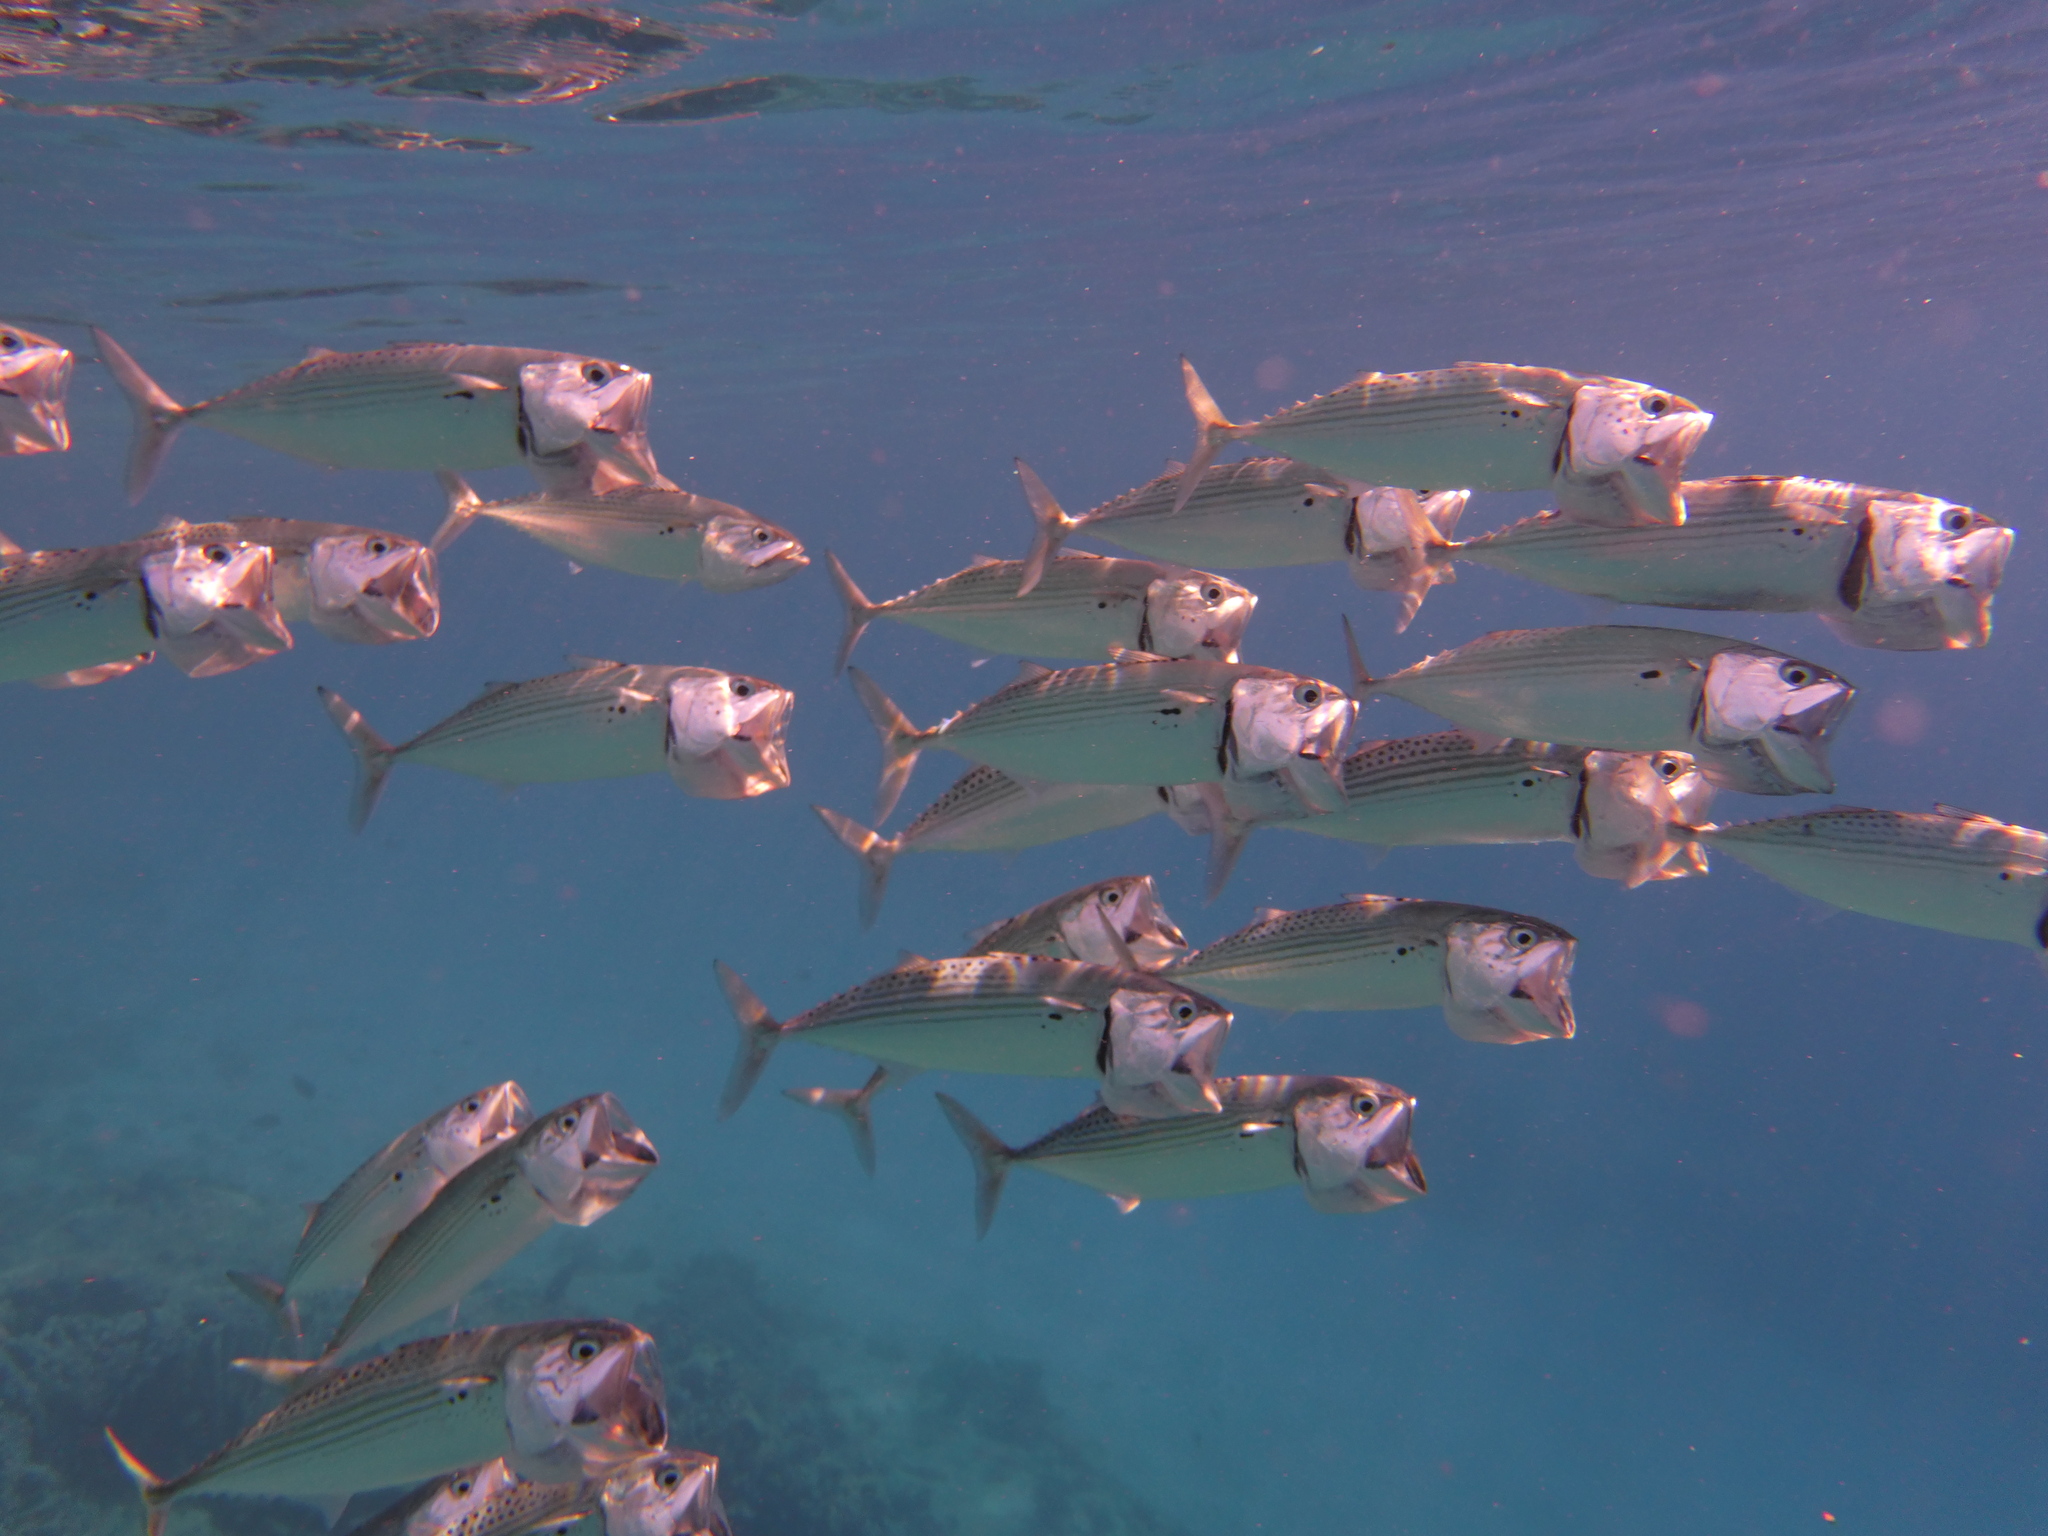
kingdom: Animalia
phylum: Chordata
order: Perciformes
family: Scombridae
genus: Rastrelliger
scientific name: Rastrelliger kanagurta
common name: Indian mackerel
